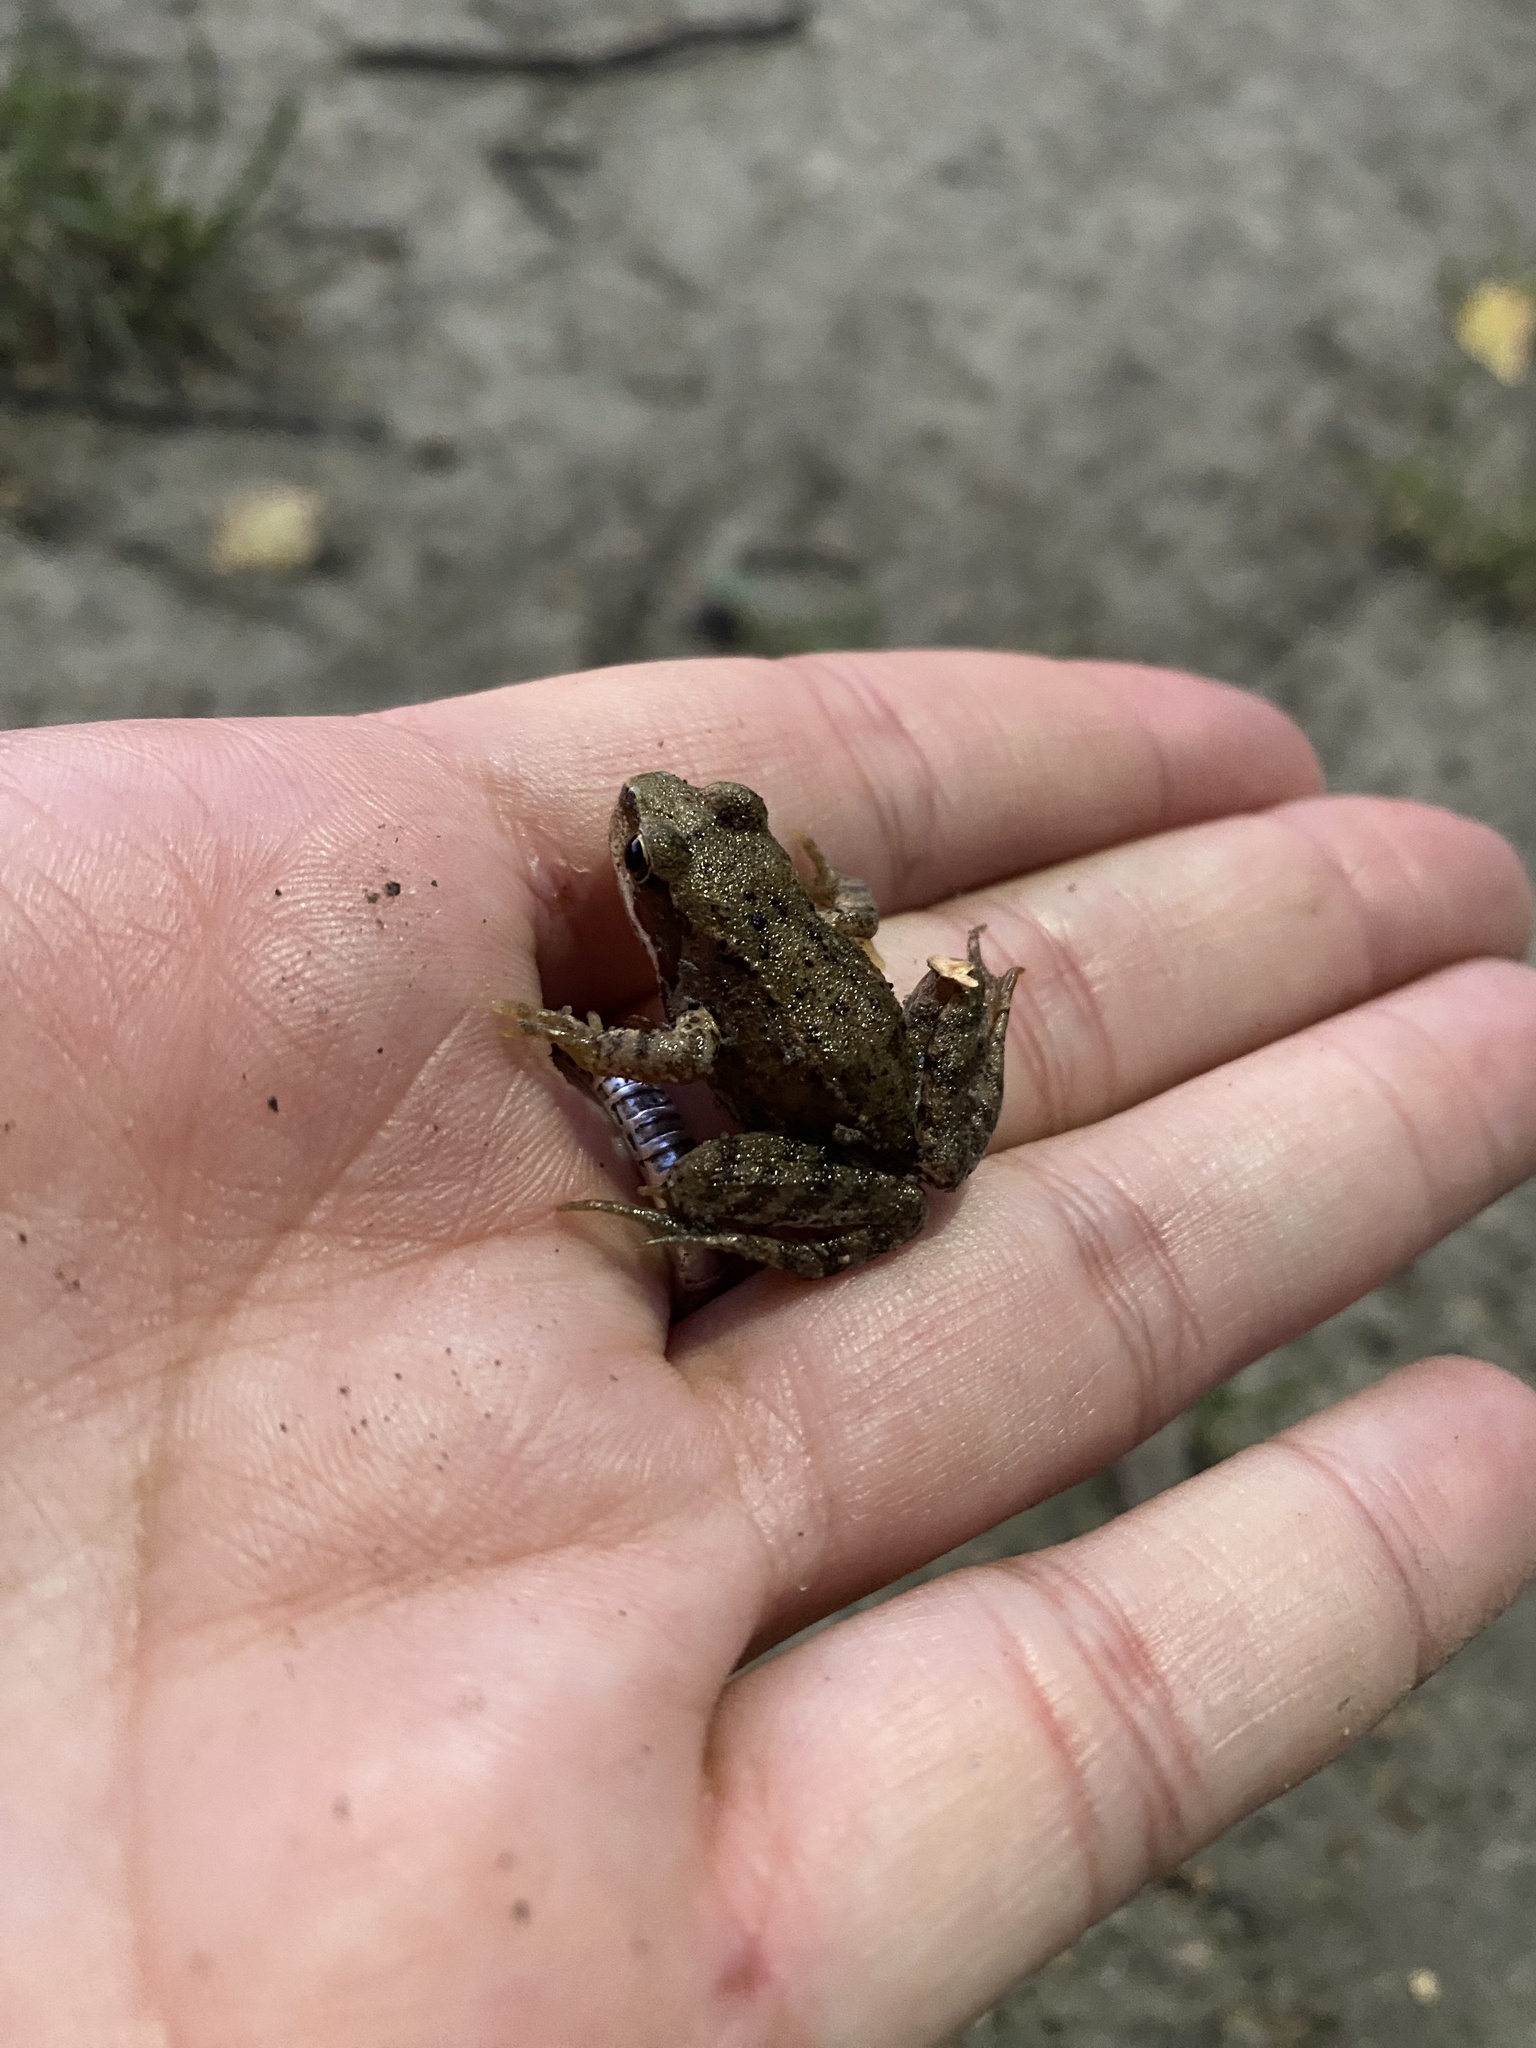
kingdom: Animalia
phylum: Chordata
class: Amphibia
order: Anura
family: Ranidae
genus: Rana
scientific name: Rana temporaria
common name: Common frog
